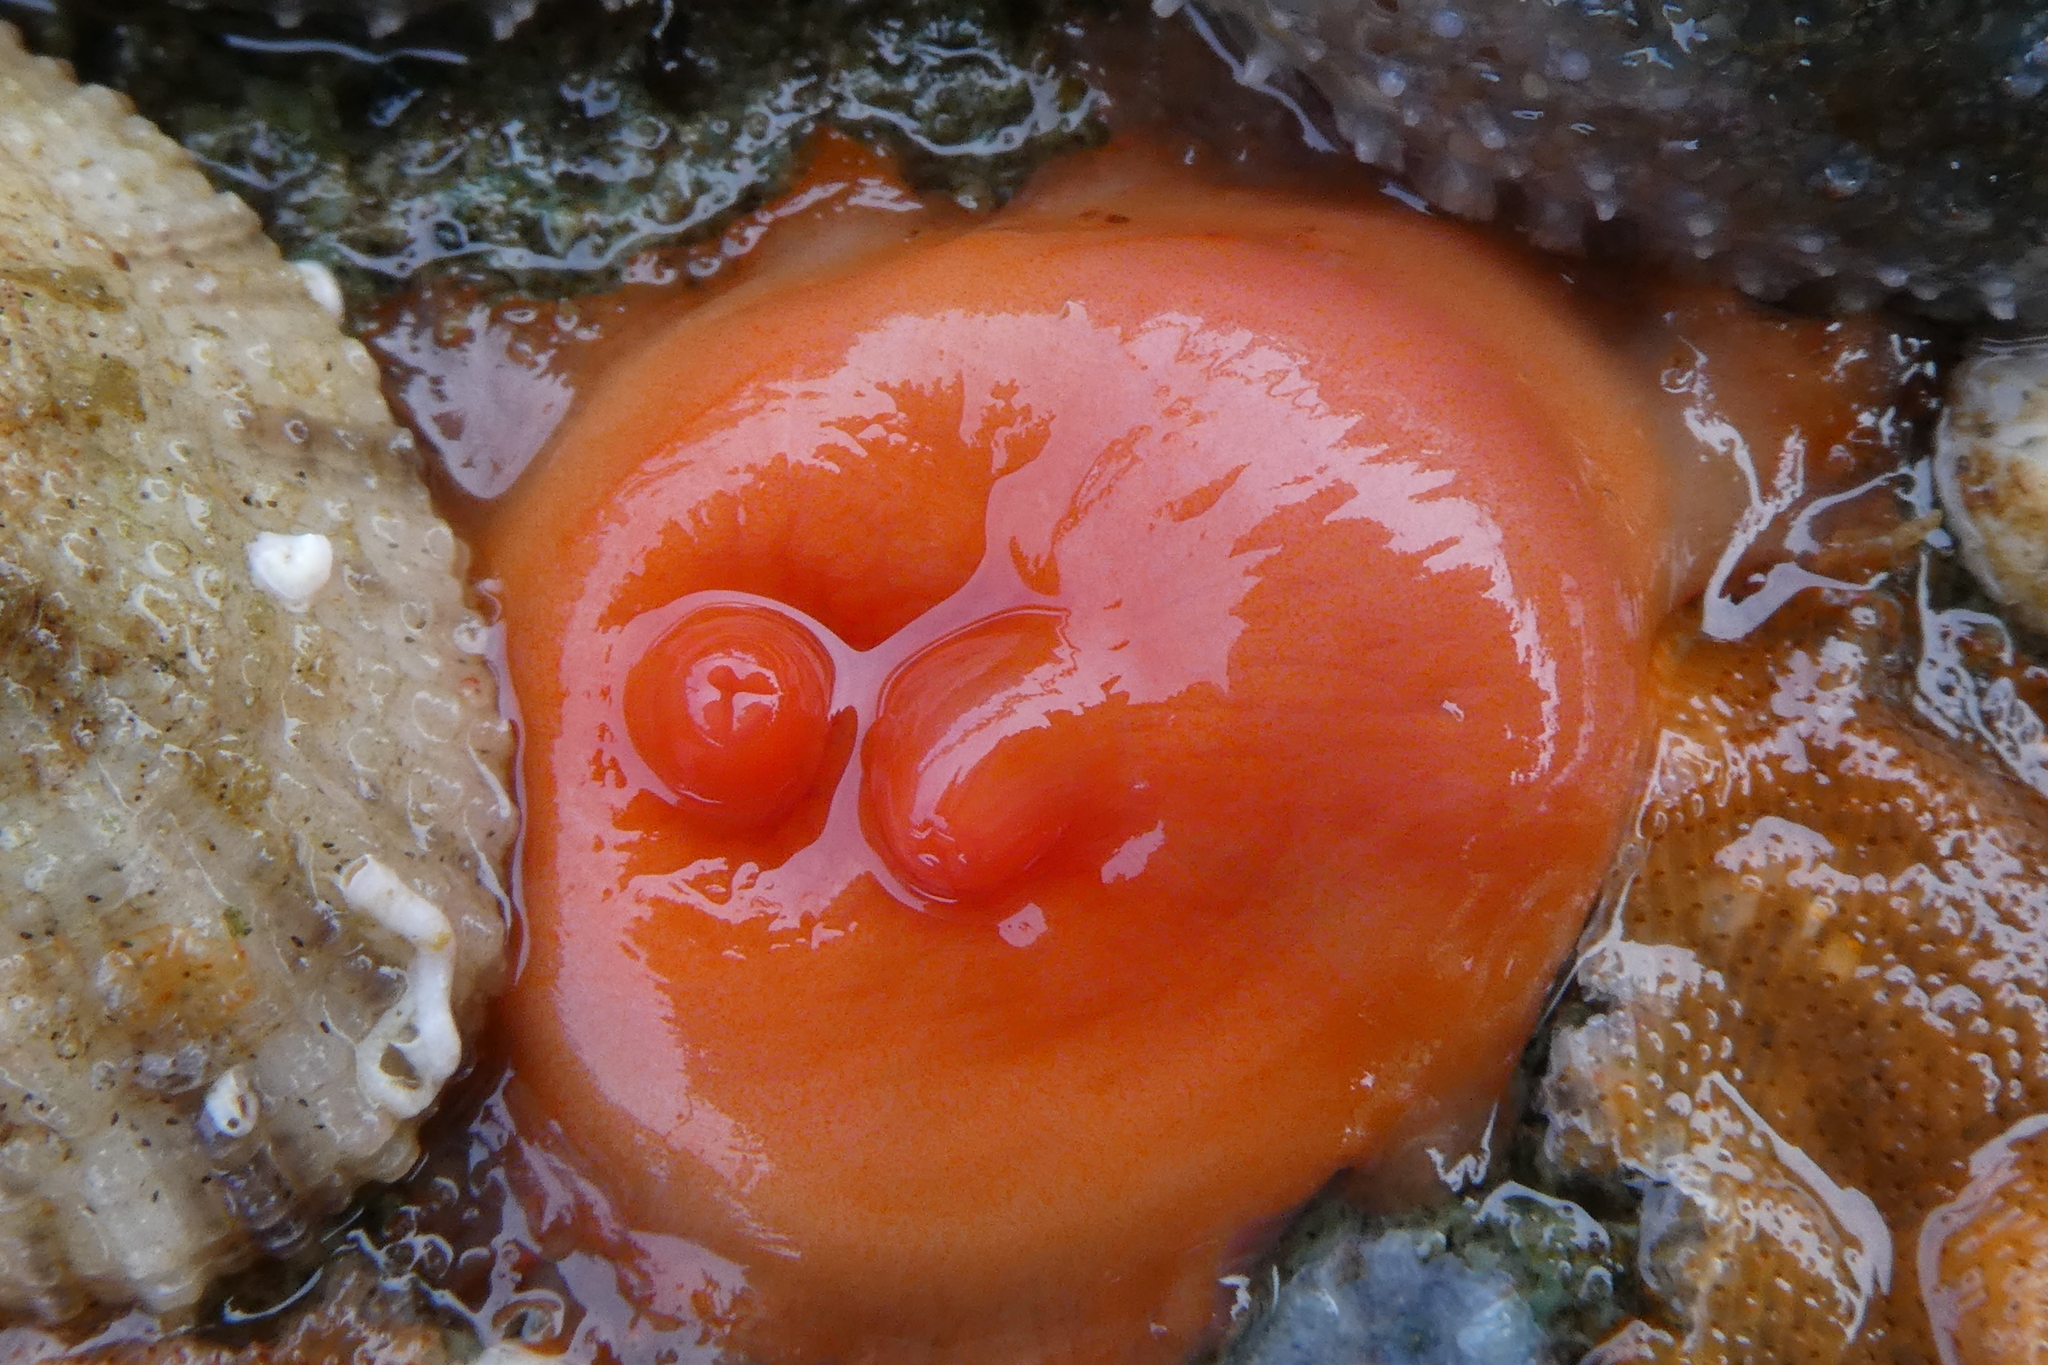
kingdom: Animalia
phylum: Chordata
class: Ascidiacea
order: Stolidobranchia
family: Styelidae
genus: Cnemidocarpa
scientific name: Cnemidocarpa finmarkiensis
